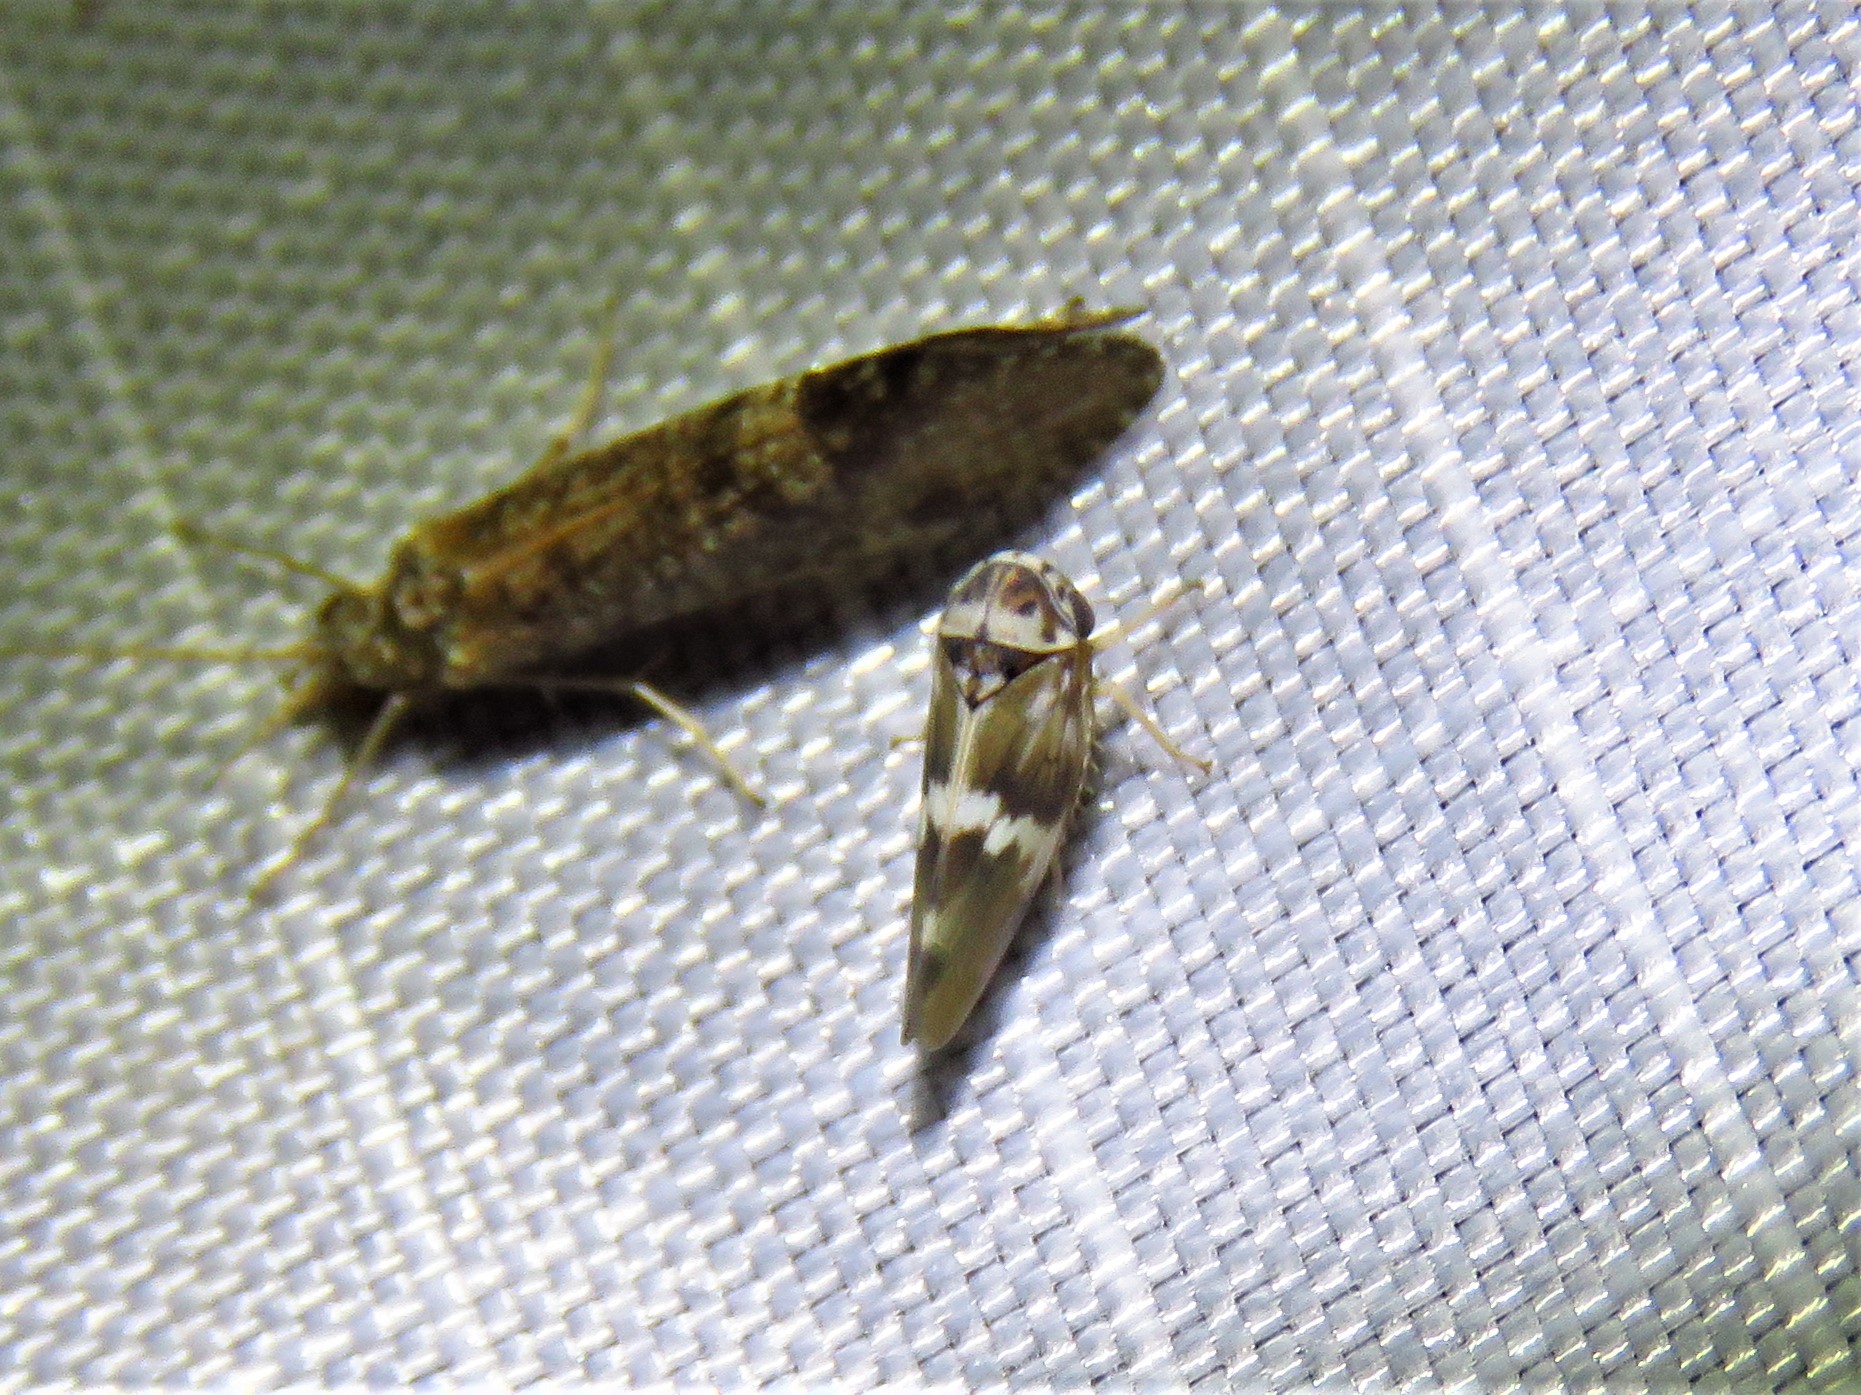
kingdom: Animalia
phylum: Arthropoda
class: Insecta
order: Hemiptera
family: Cicadellidae
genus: Agalliopsis
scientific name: Agalliopsis cervina
